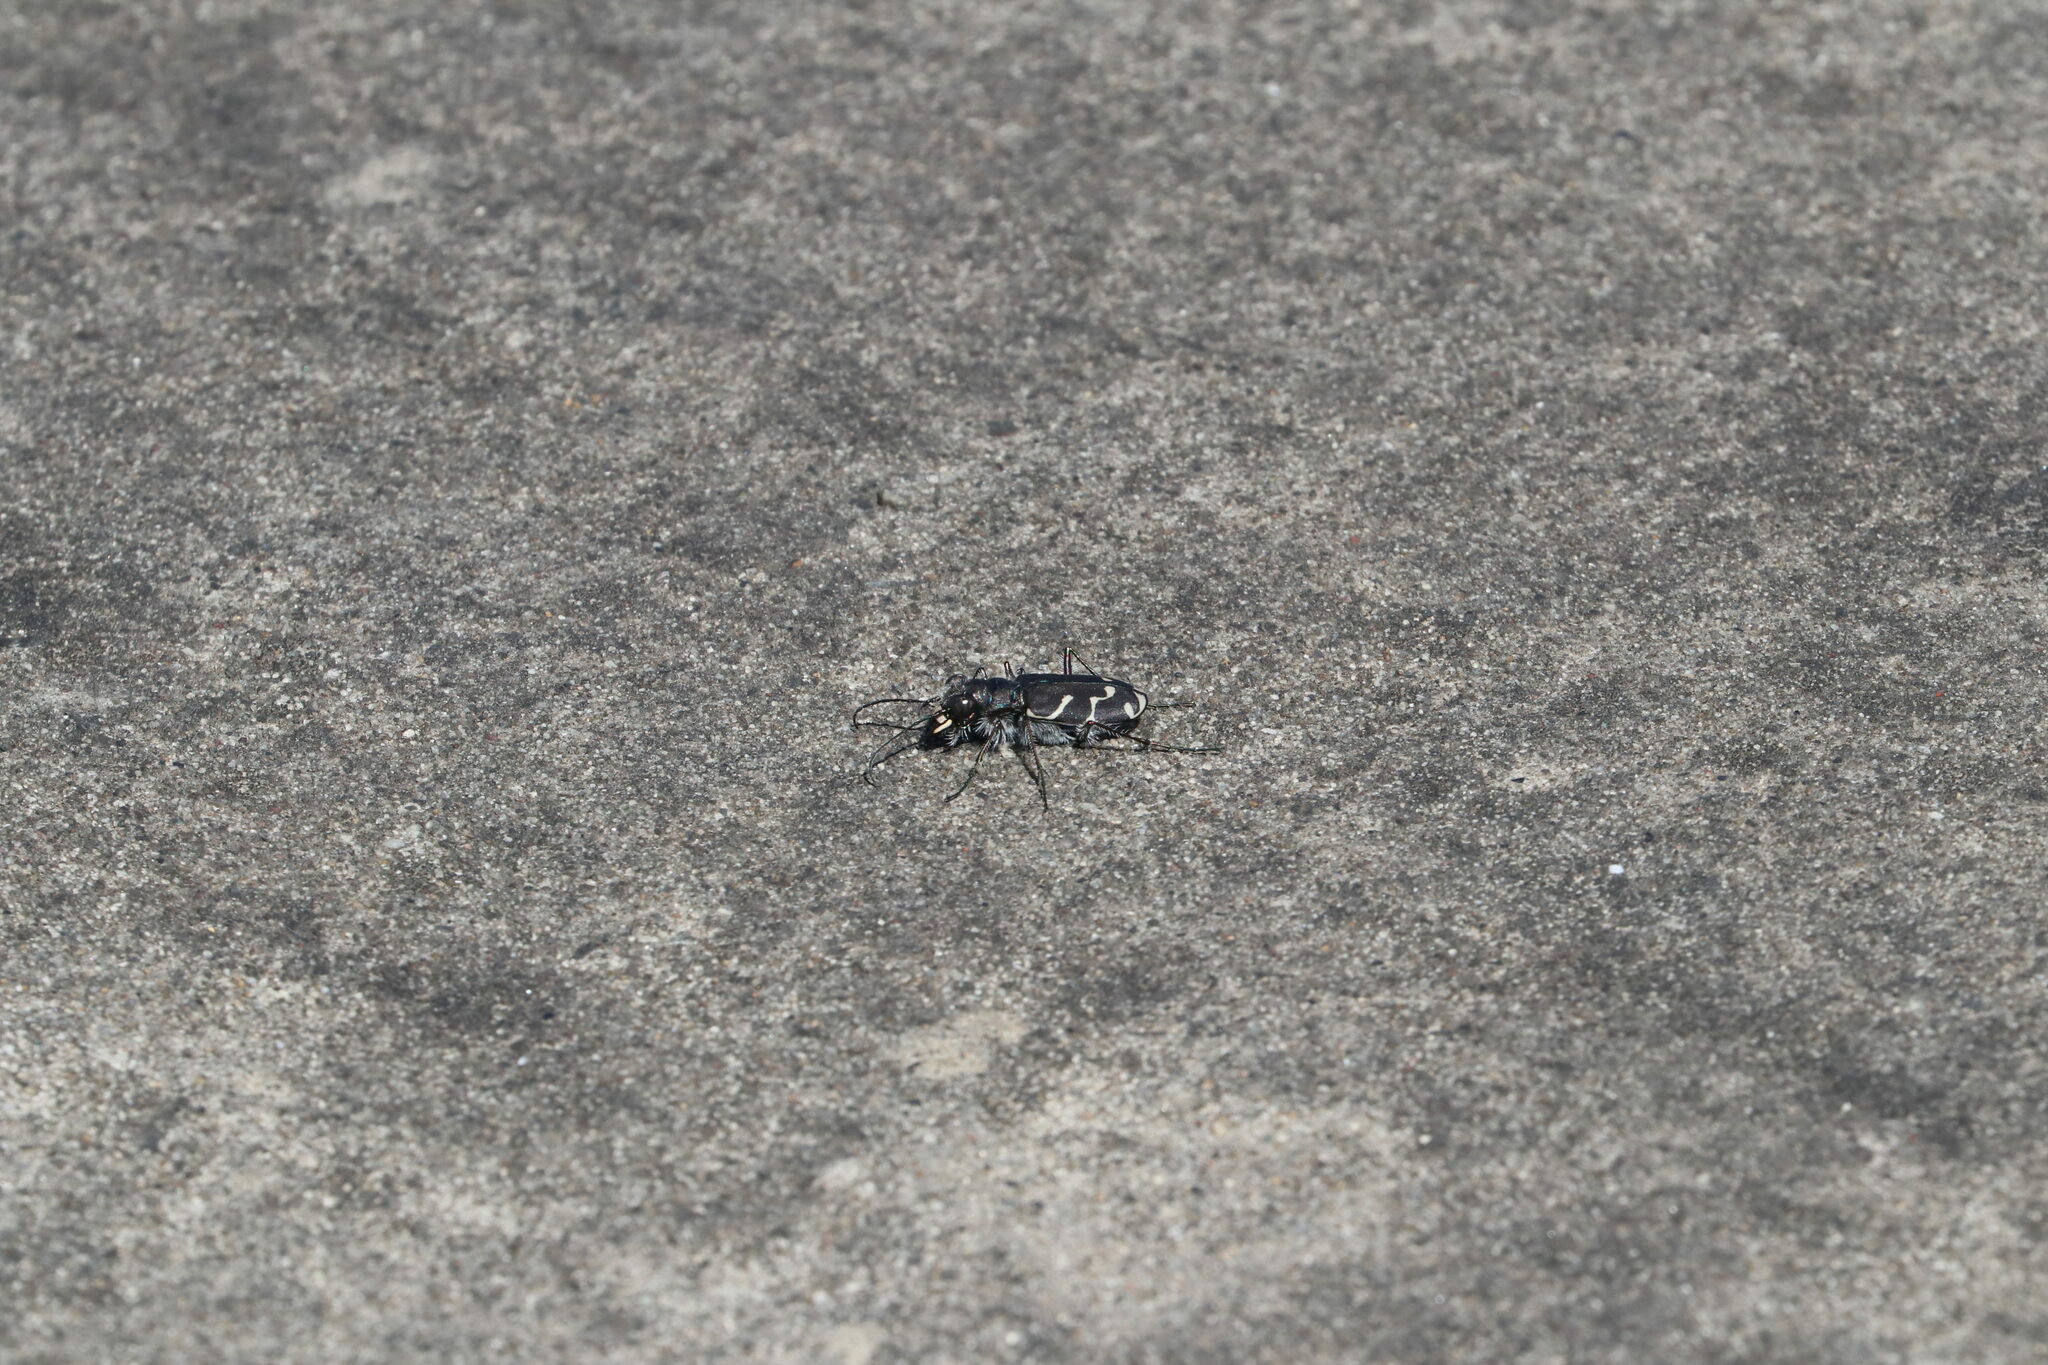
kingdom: Animalia
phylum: Arthropoda
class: Insecta
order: Coleoptera
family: Carabidae
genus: Cicindela
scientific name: Cicindela tranquebarica
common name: Oblique-lined tiger beetle
